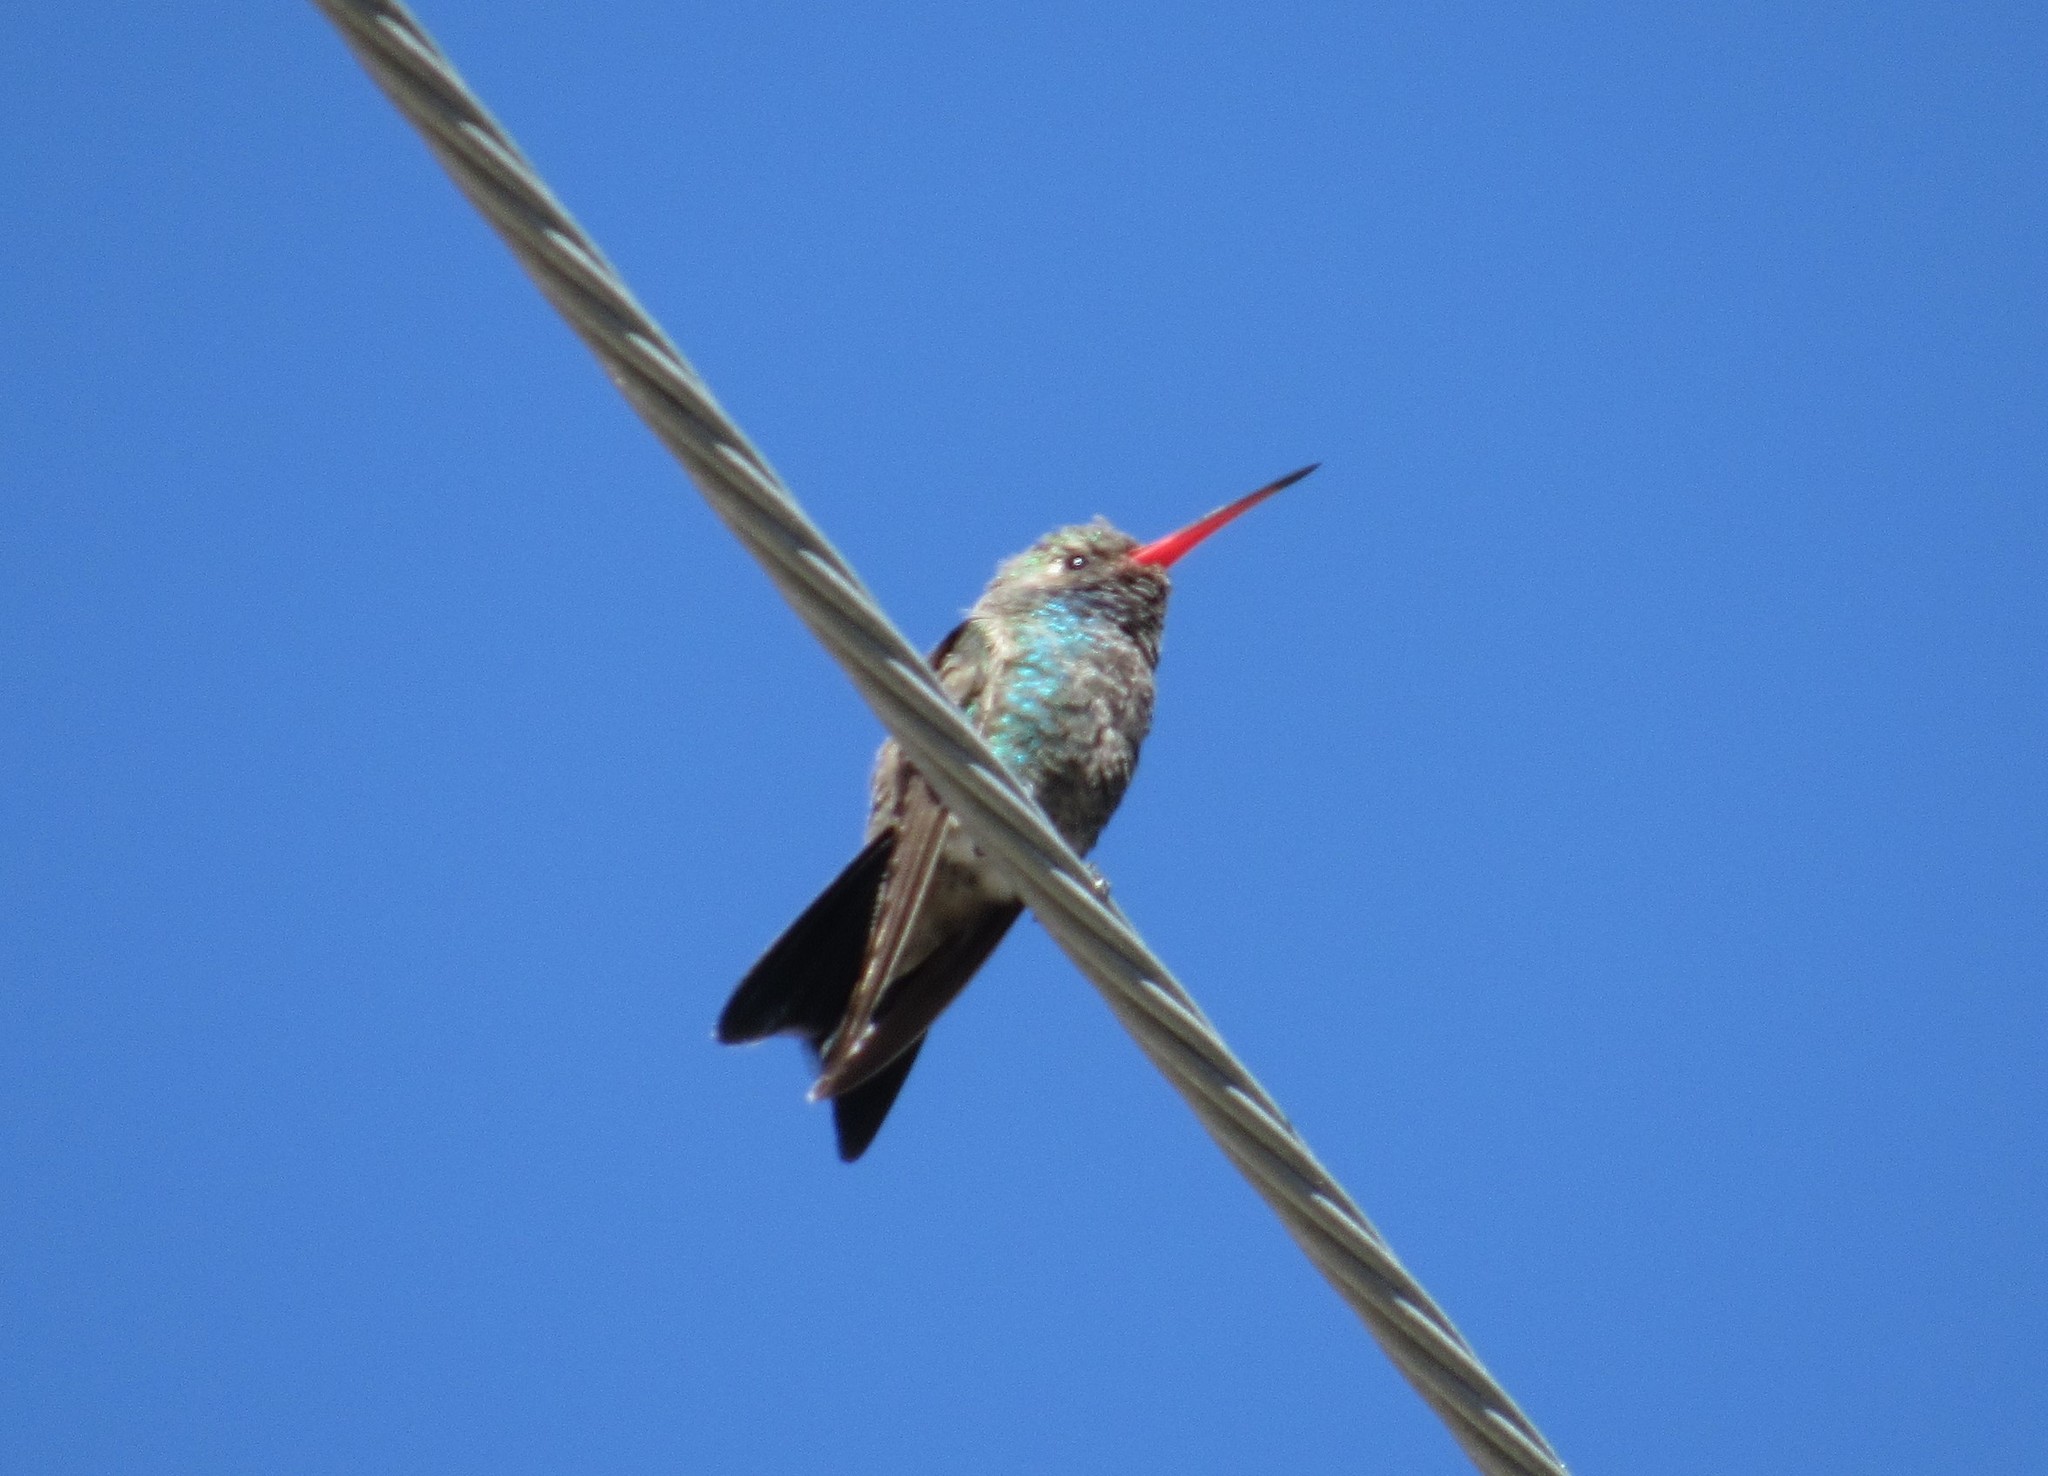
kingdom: Animalia
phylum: Chordata
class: Aves
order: Apodiformes
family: Trochilidae
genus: Cynanthus
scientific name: Cynanthus latirostris
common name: Broad-billed hummingbird
